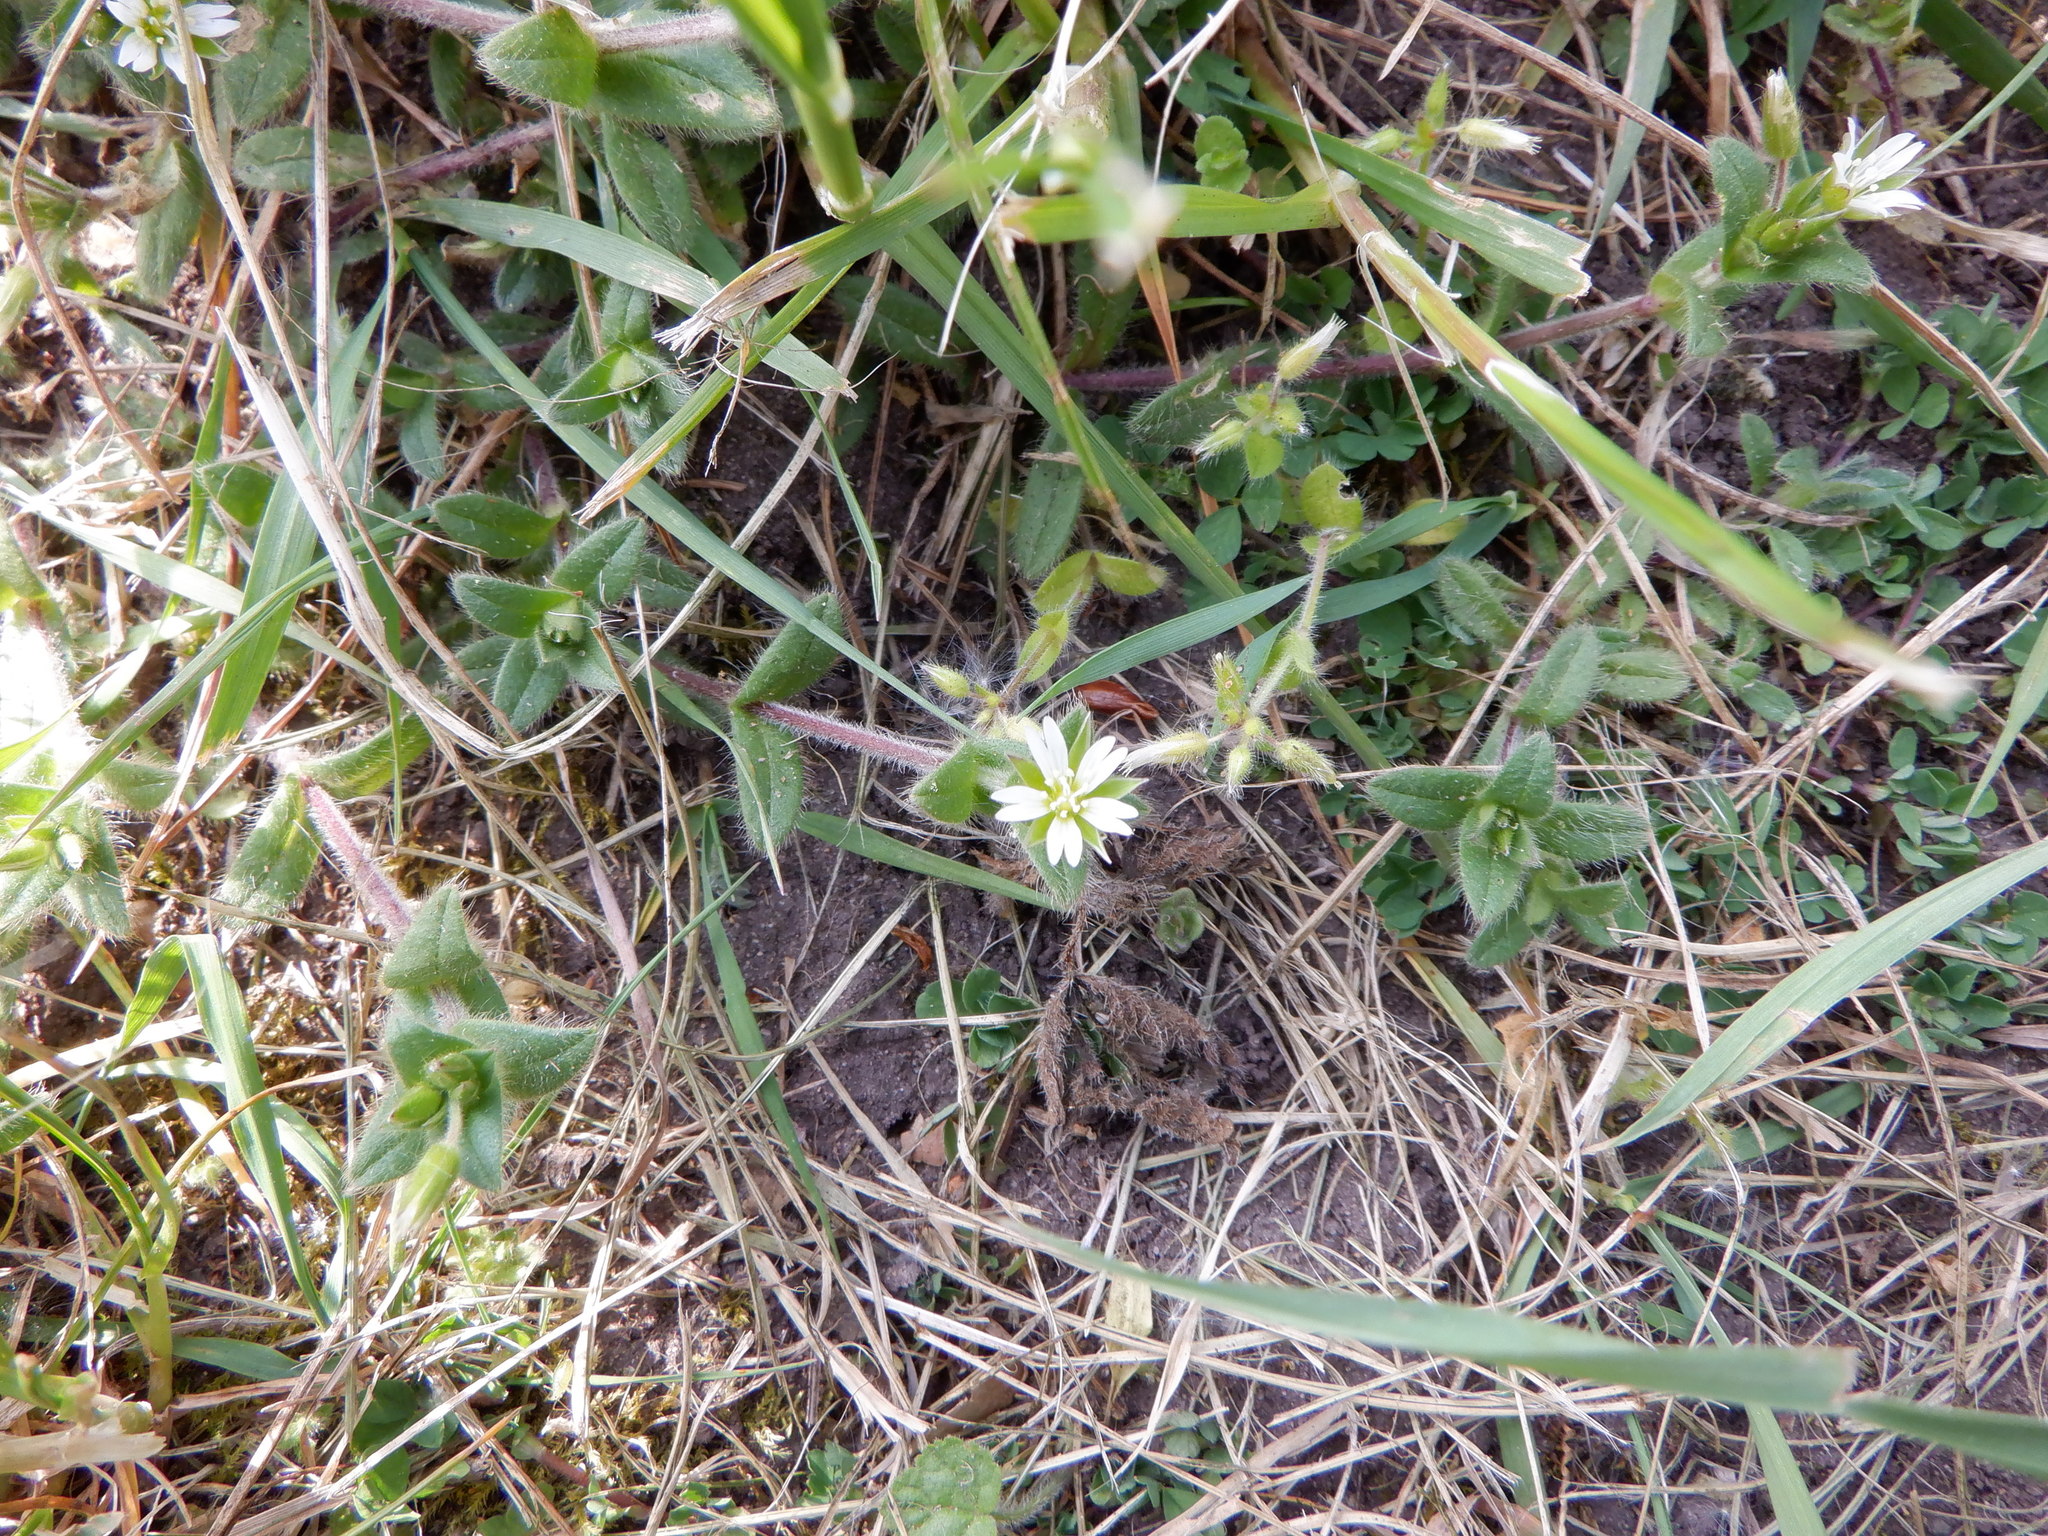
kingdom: Plantae
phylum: Tracheophyta
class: Magnoliopsida
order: Caryophyllales
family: Caryophyllaceae
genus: Cerastium
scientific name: Cerastium fontanum
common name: Common mouse-ear
